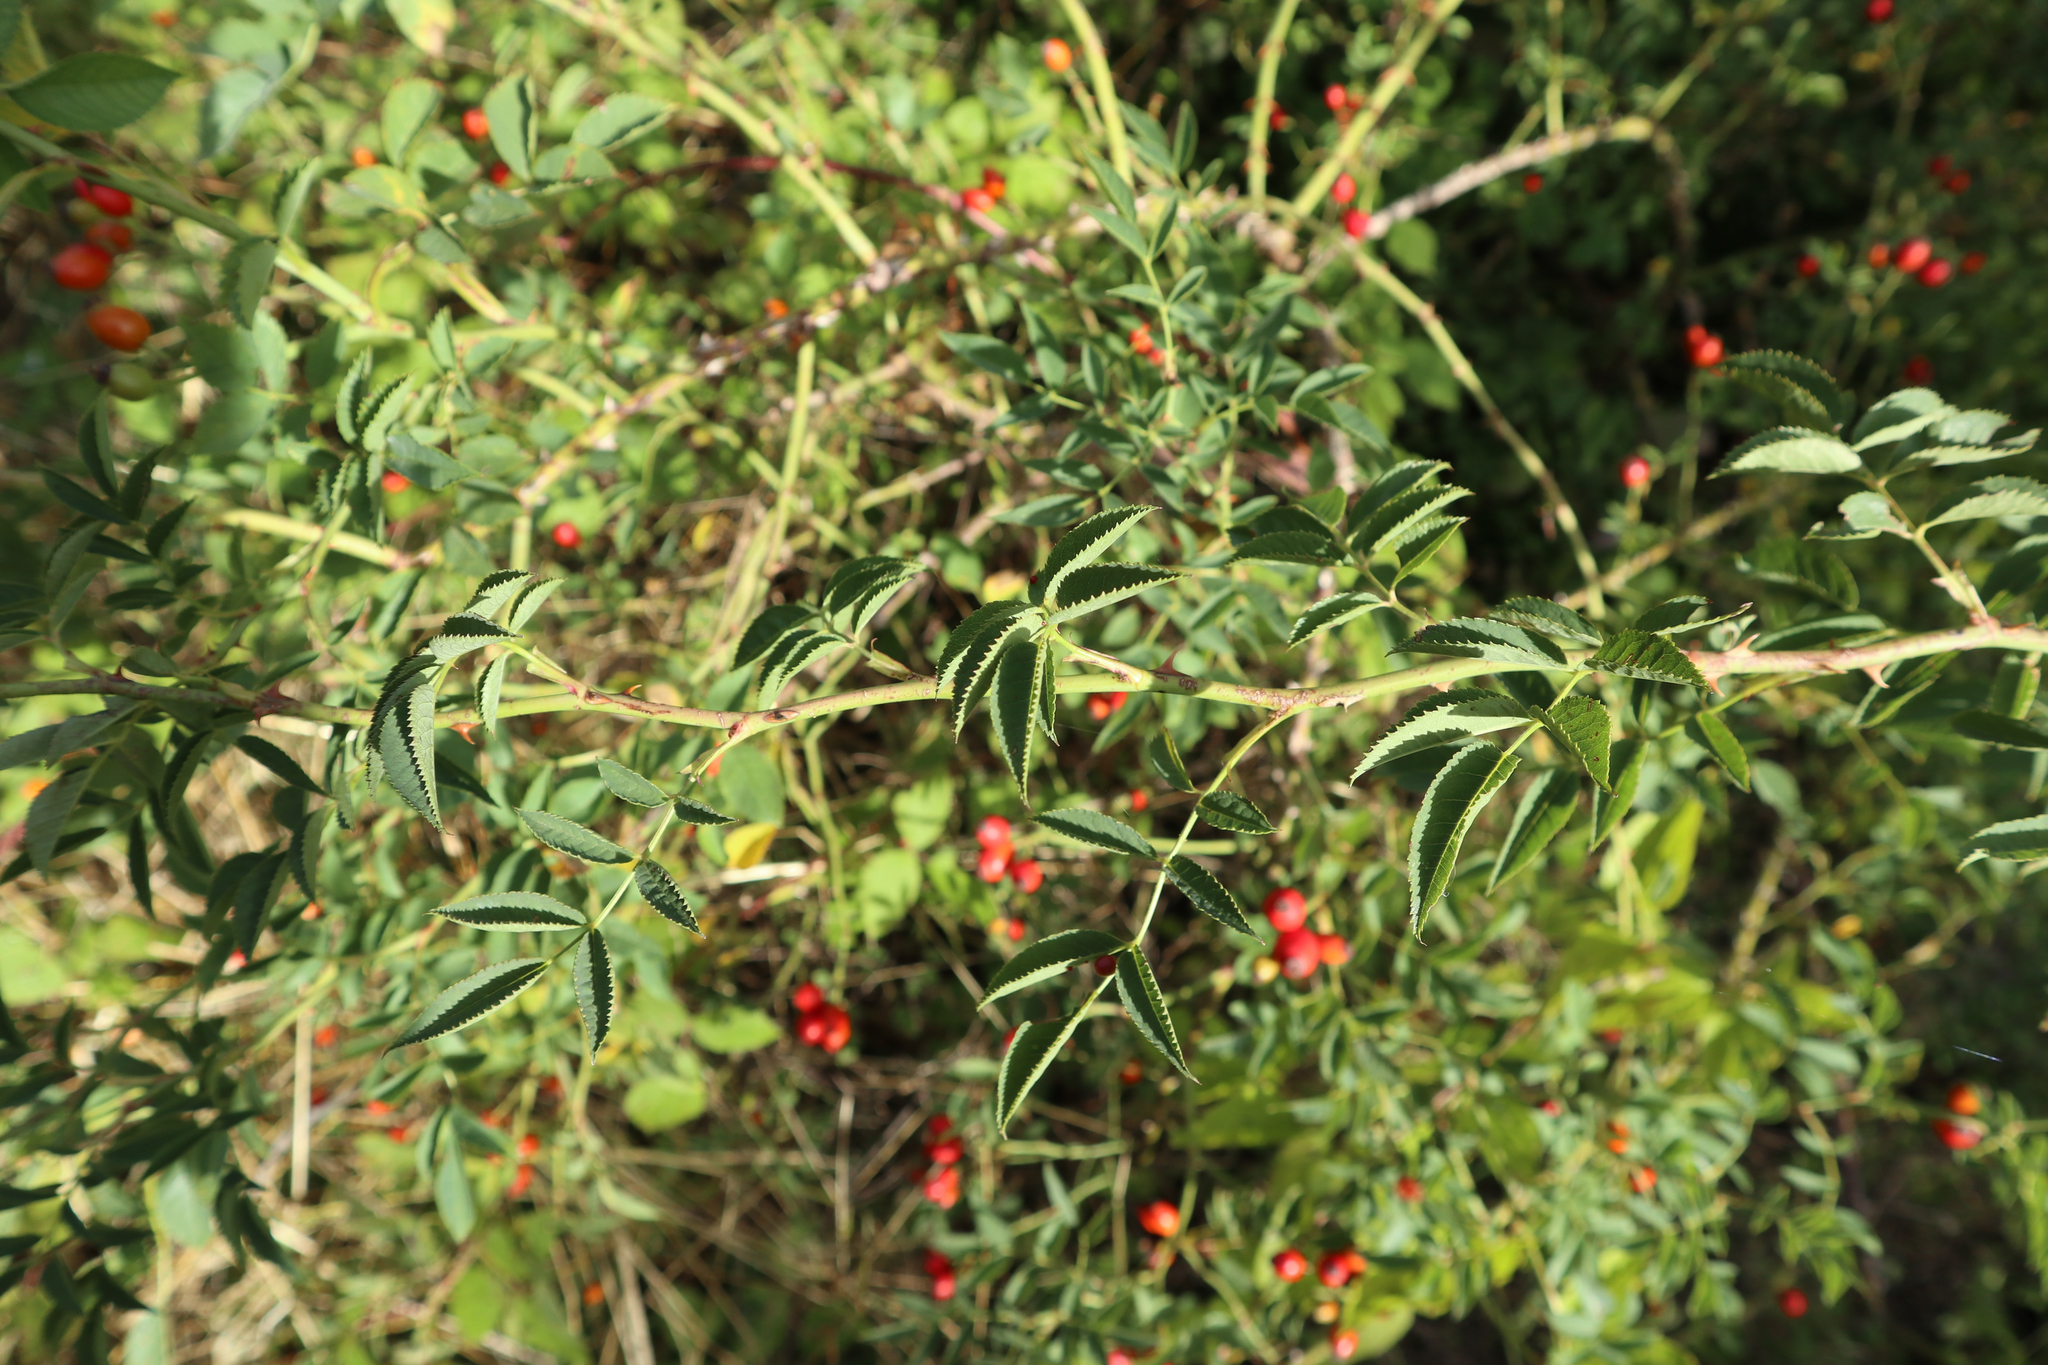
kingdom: Plantae
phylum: Tracheophyta
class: Magnoliopsida
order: Rosales
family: Rosaceae
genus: Rosa
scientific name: Rosa canina
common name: Dog rose
